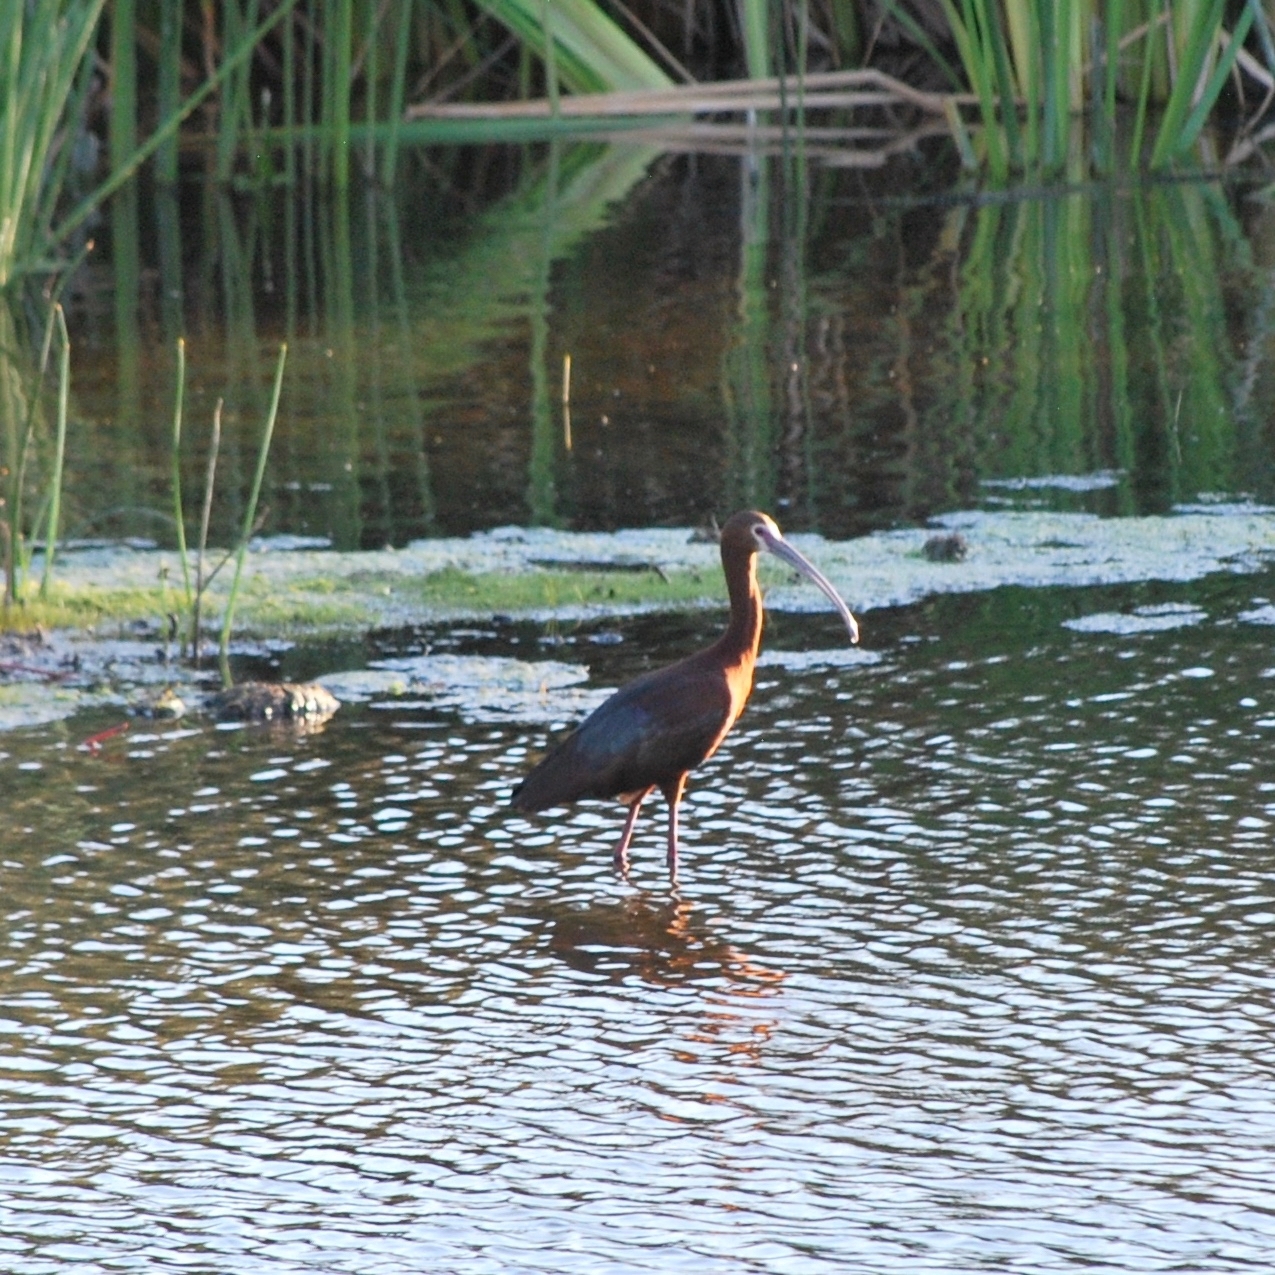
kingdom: Animalia
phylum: Chordata
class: Aves
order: Pelecaniformes
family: Threskiornithidae
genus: Plegadis
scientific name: Plegadis chihi
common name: White-faced ibis
